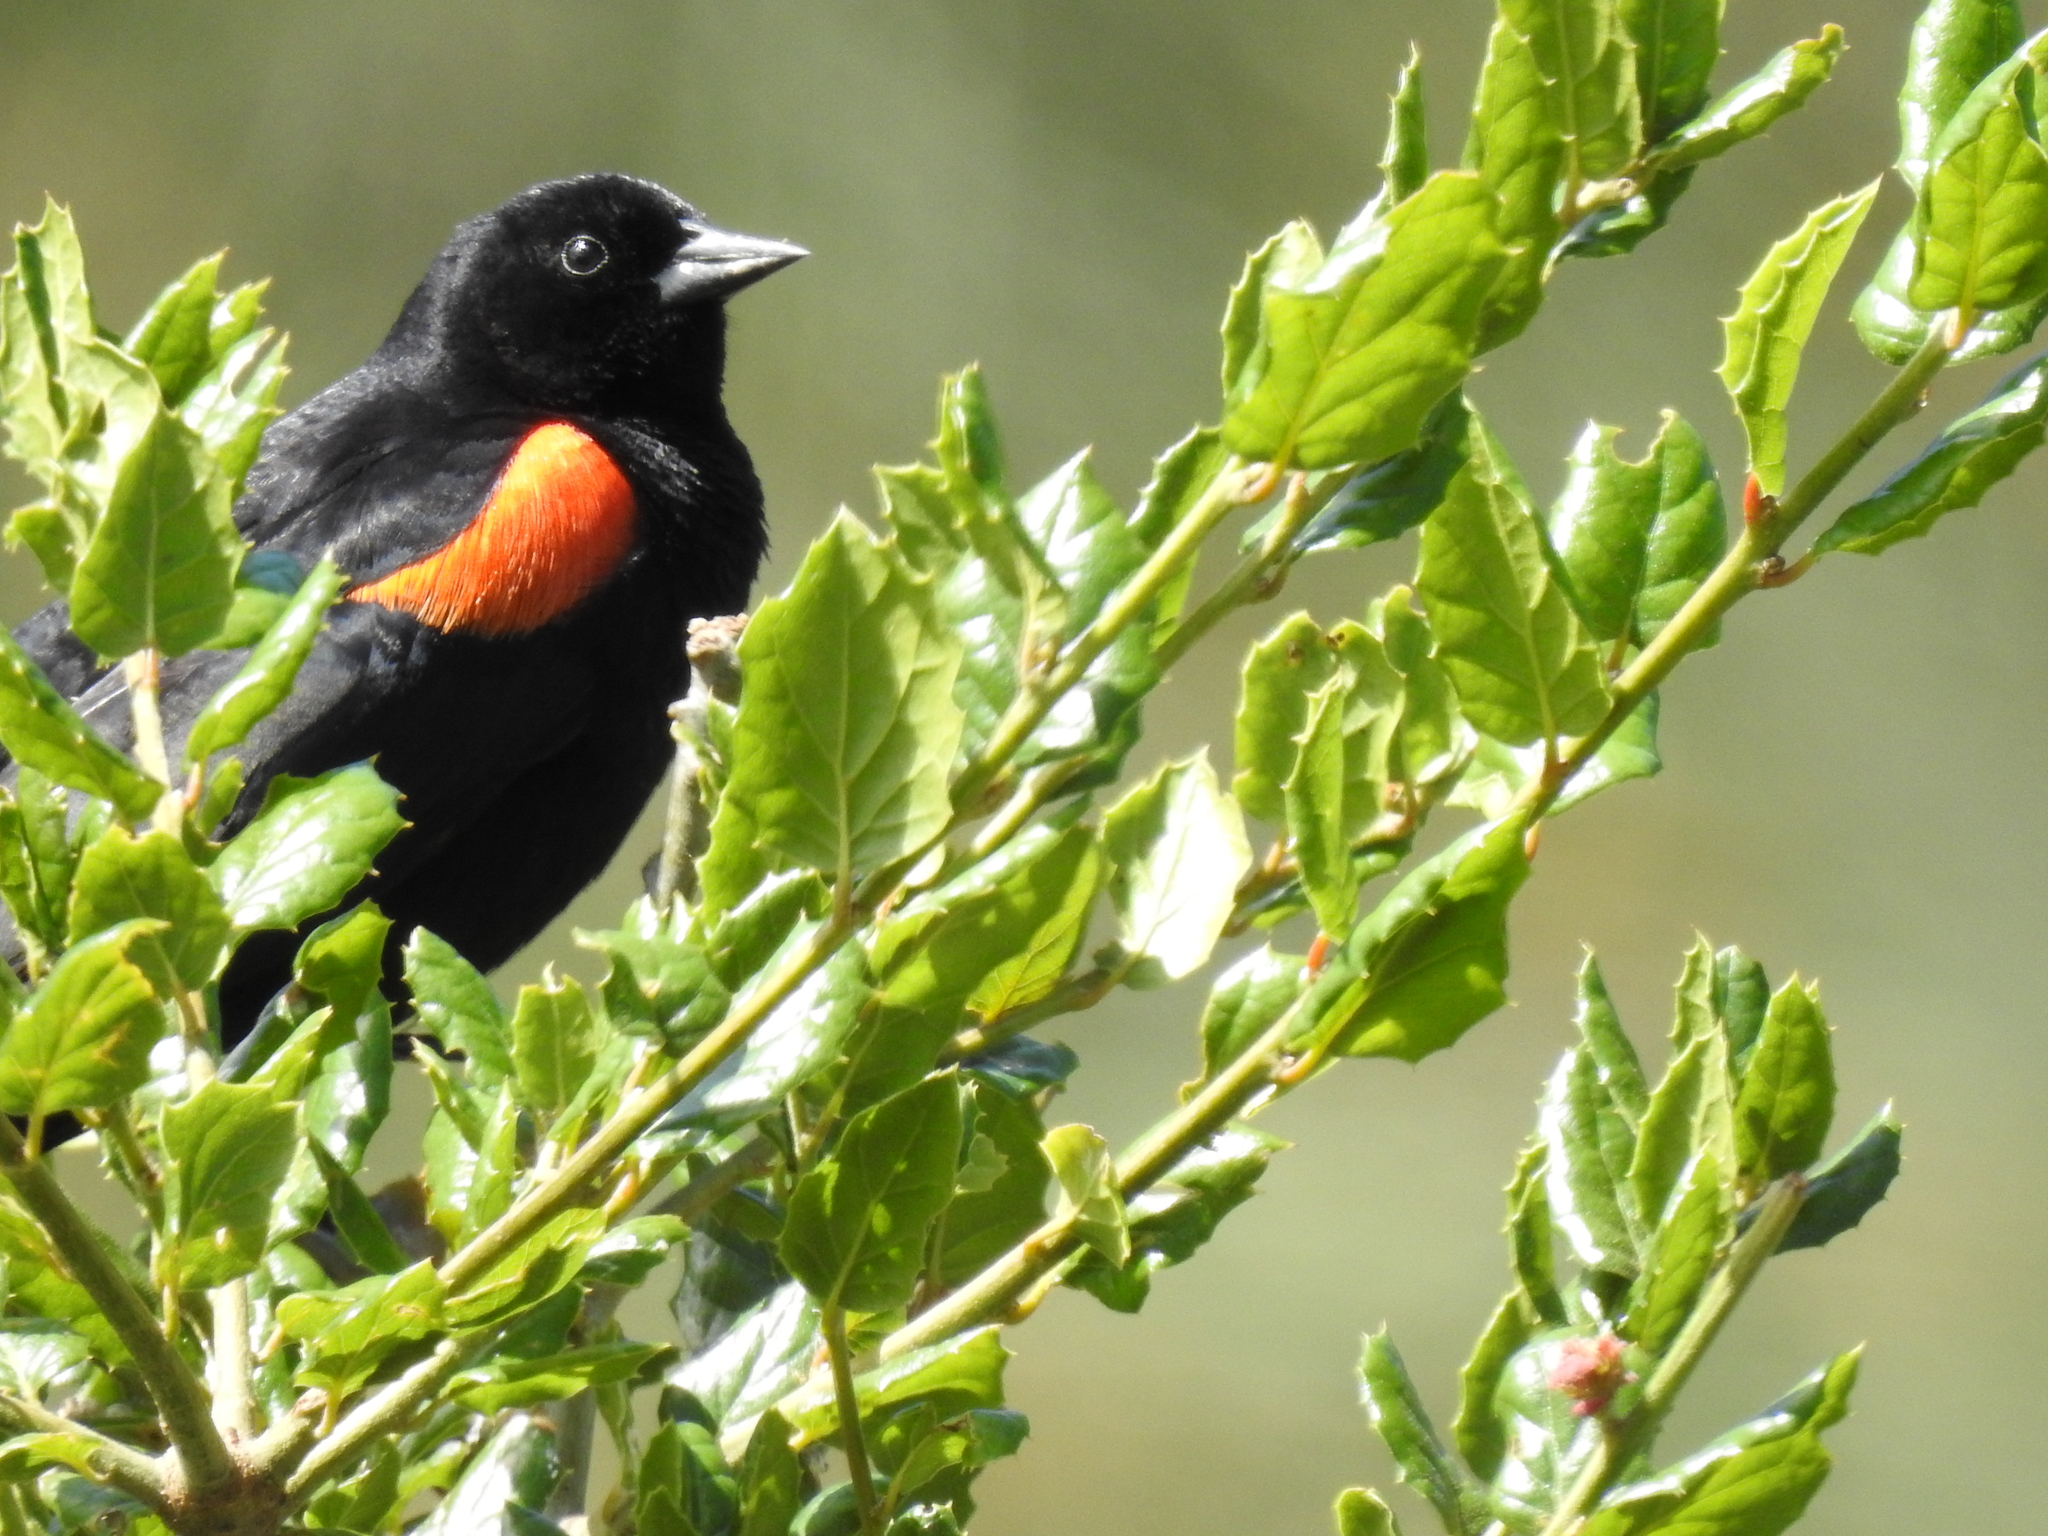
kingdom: Animalia
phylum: Chordata
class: Aves
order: Passeriformes
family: Icteridae
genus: Agelaius
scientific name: Agelaius phoeniceus
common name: Red-winged blackbird
